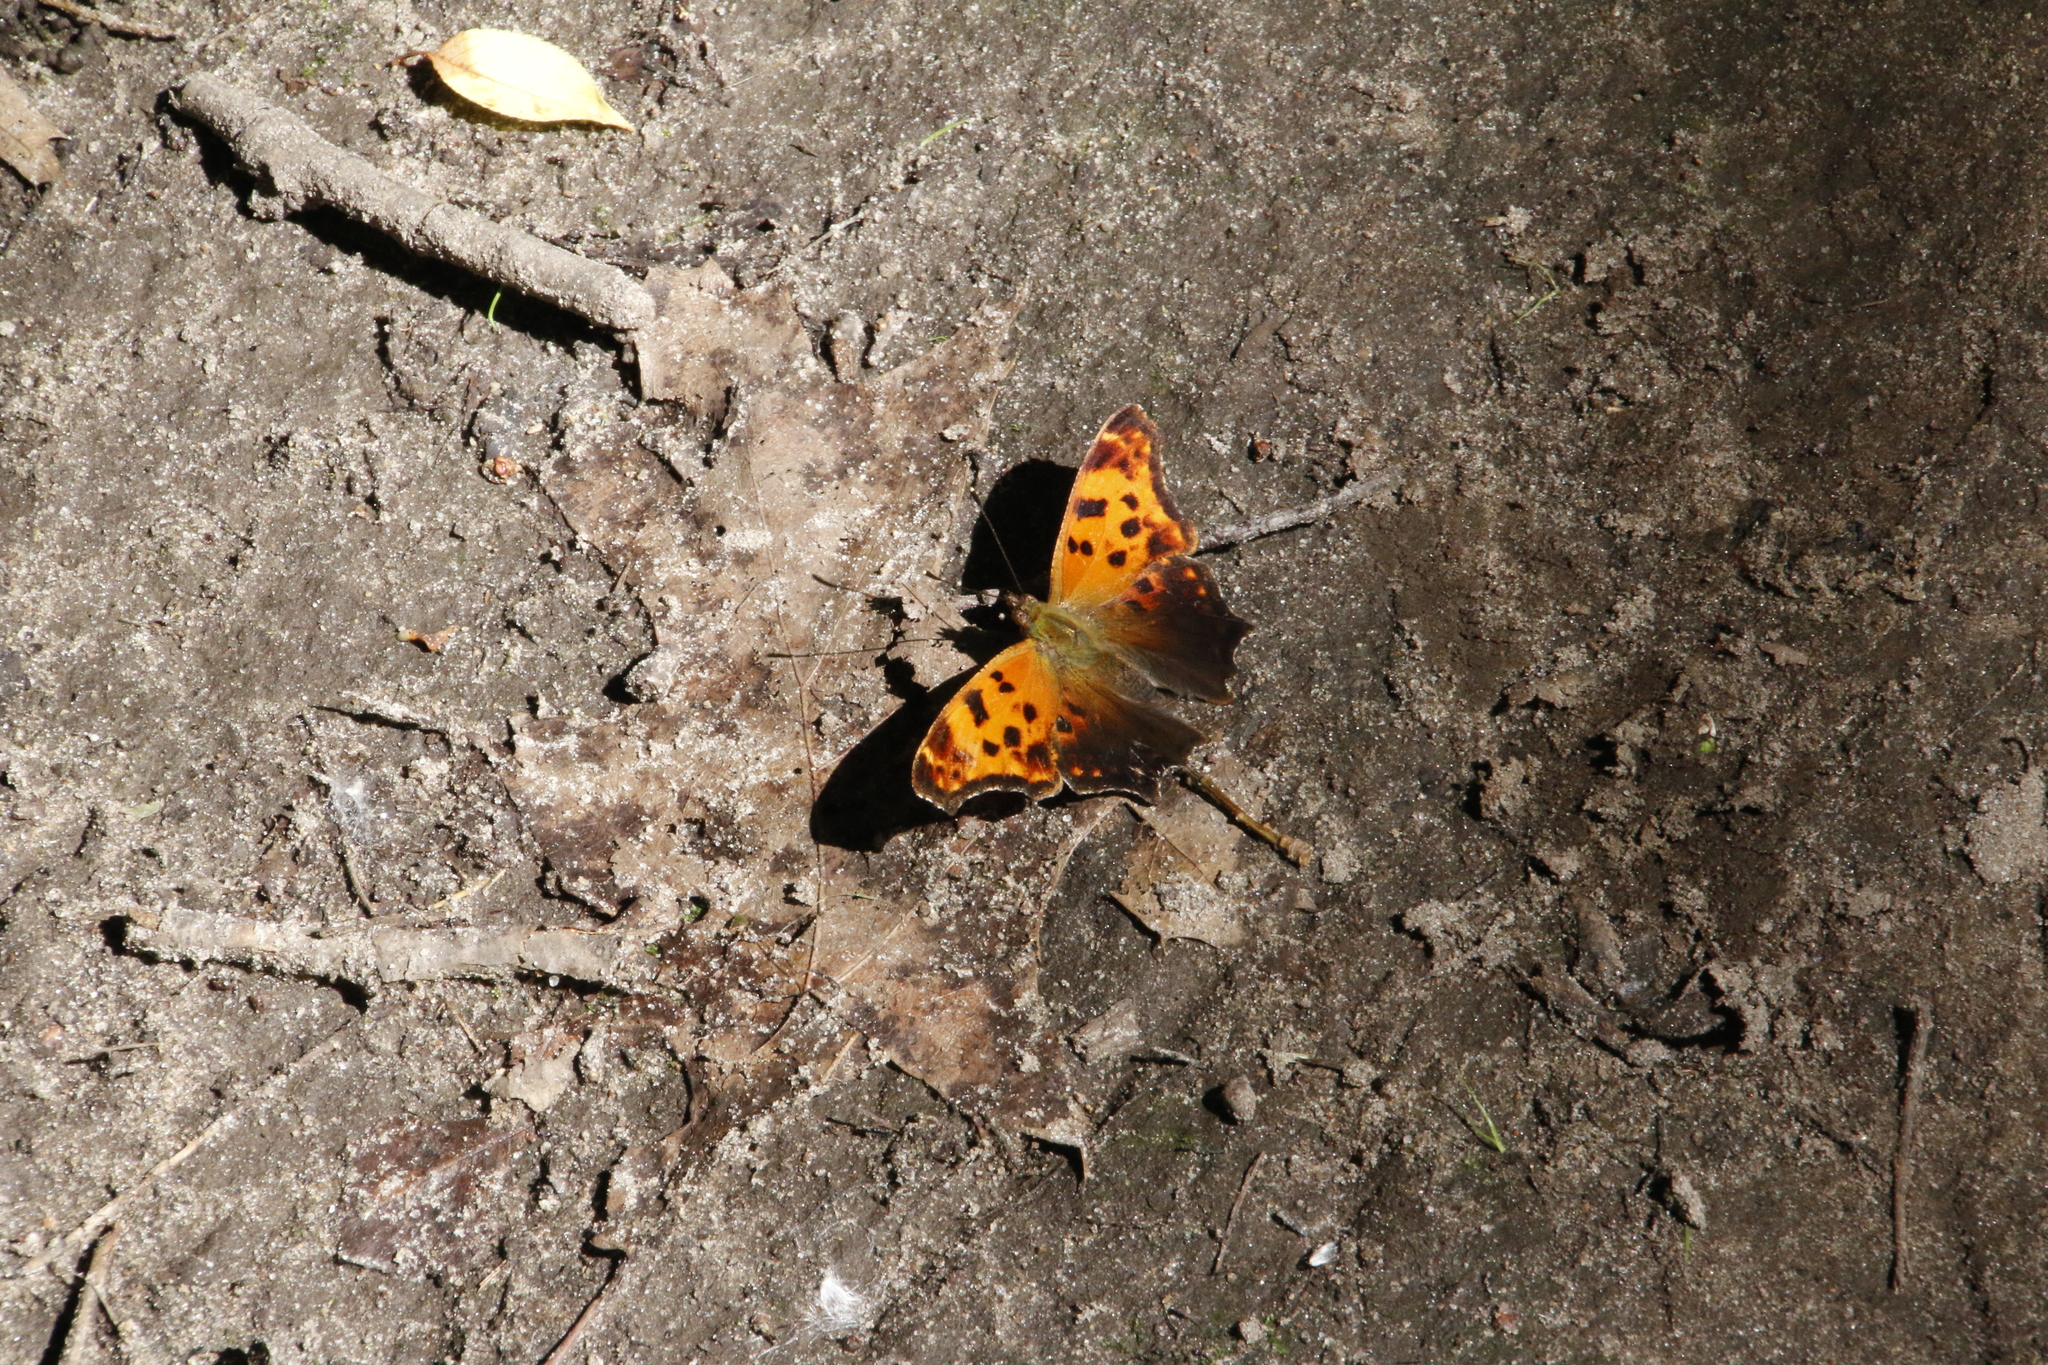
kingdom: Animalia
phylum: Arthropoda
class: Insecta
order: Lepidoptera
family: Nymphalidae
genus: Polygonia
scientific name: Polygonia comma
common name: Eastern comma
